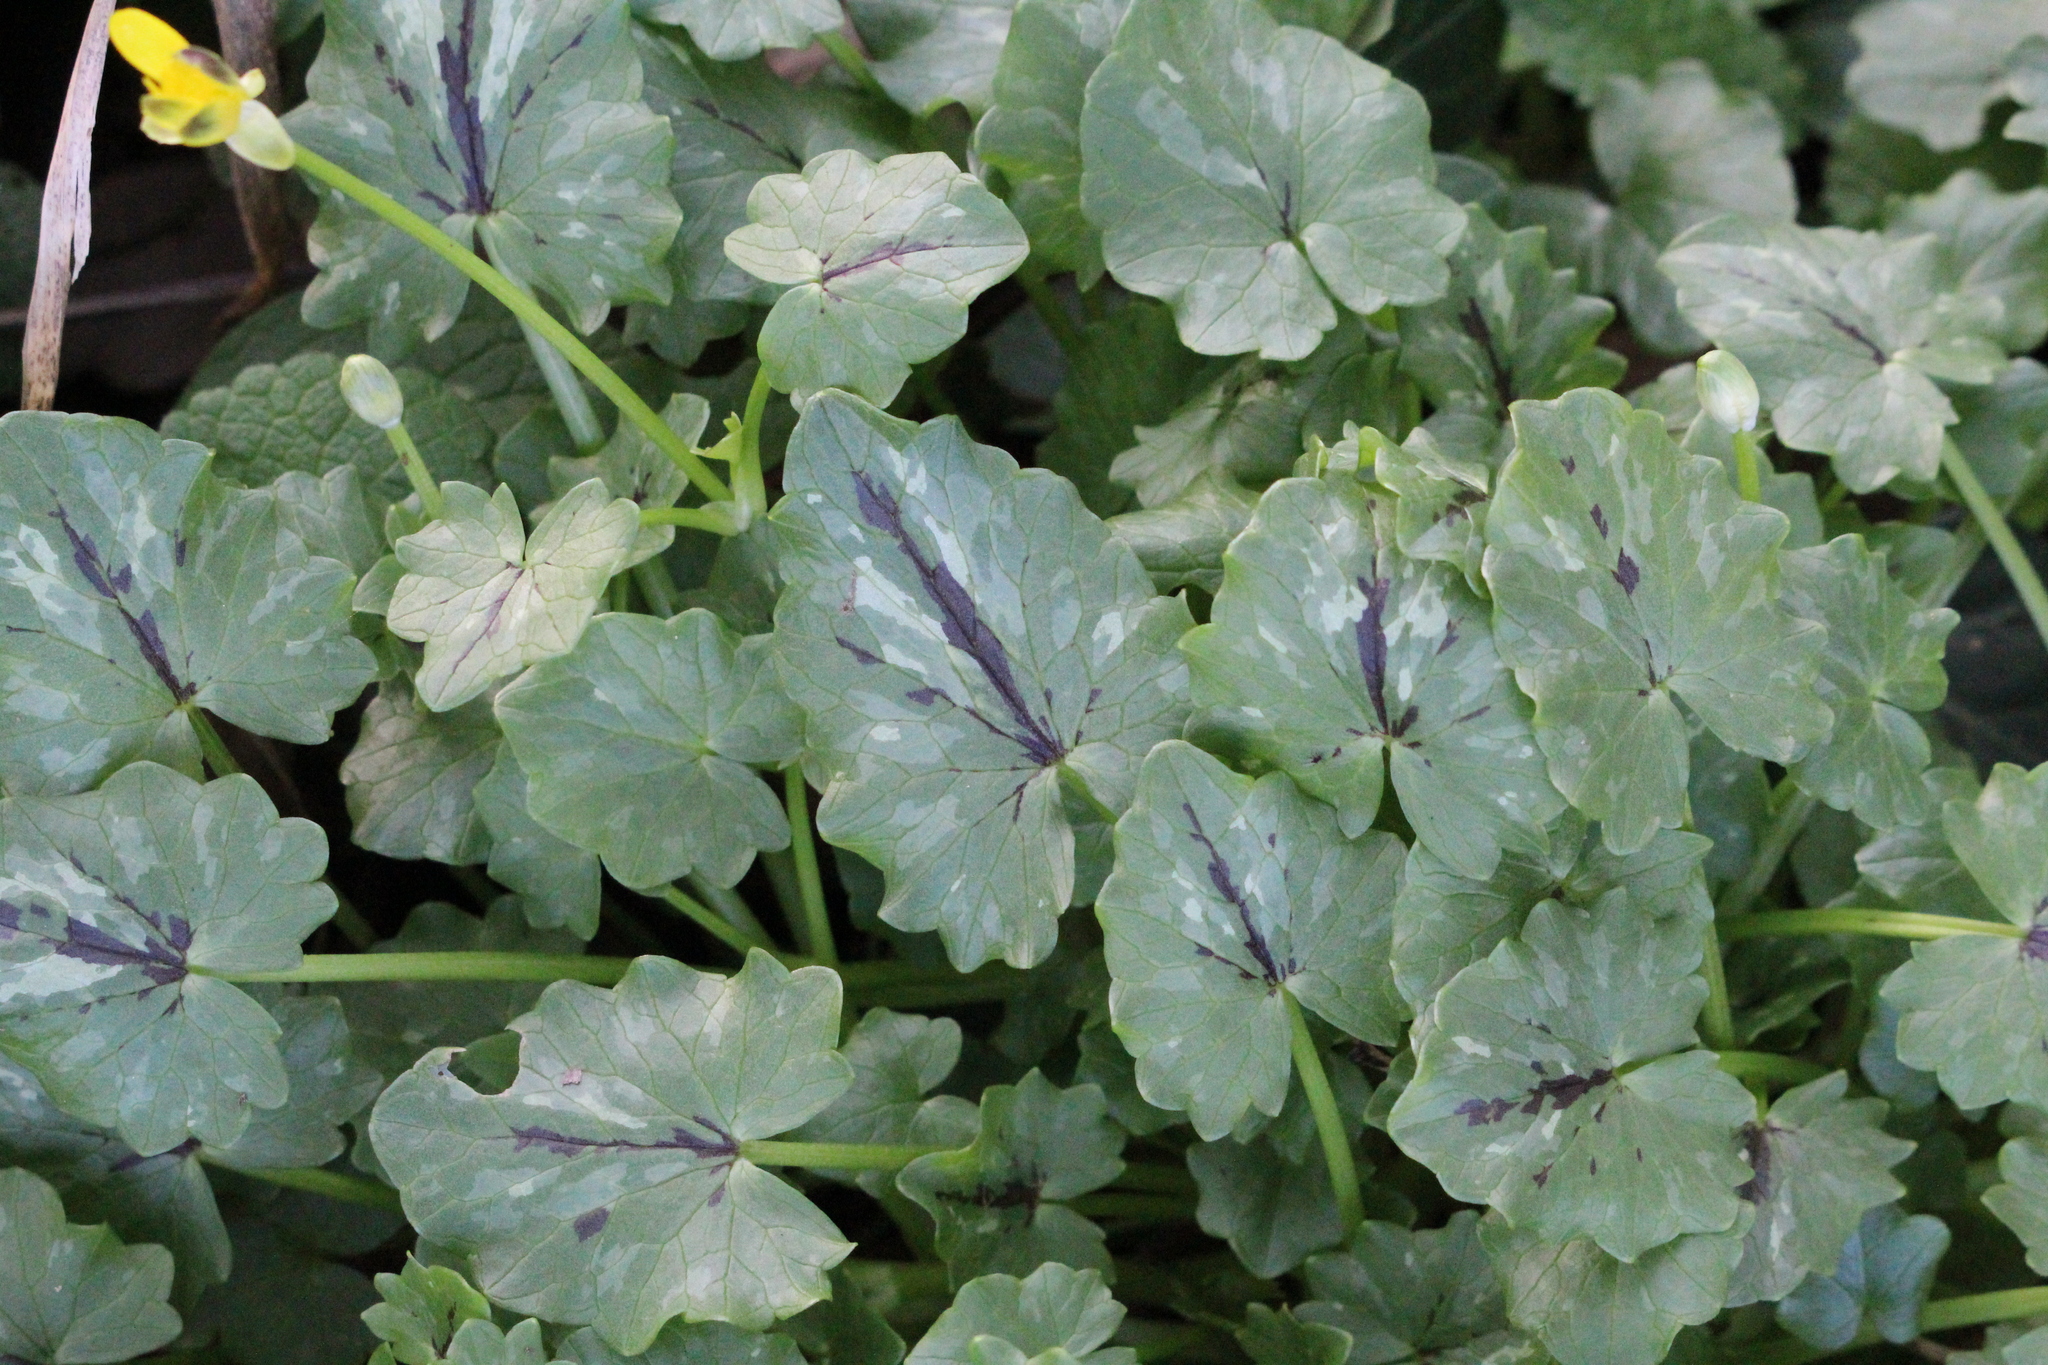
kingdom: Plantae
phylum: Tracheophyta
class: Magnoliopsida
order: Ranunculales
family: Ranunculaceae
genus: Ficaria
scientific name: Ficaria verna
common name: Lesser celandine
